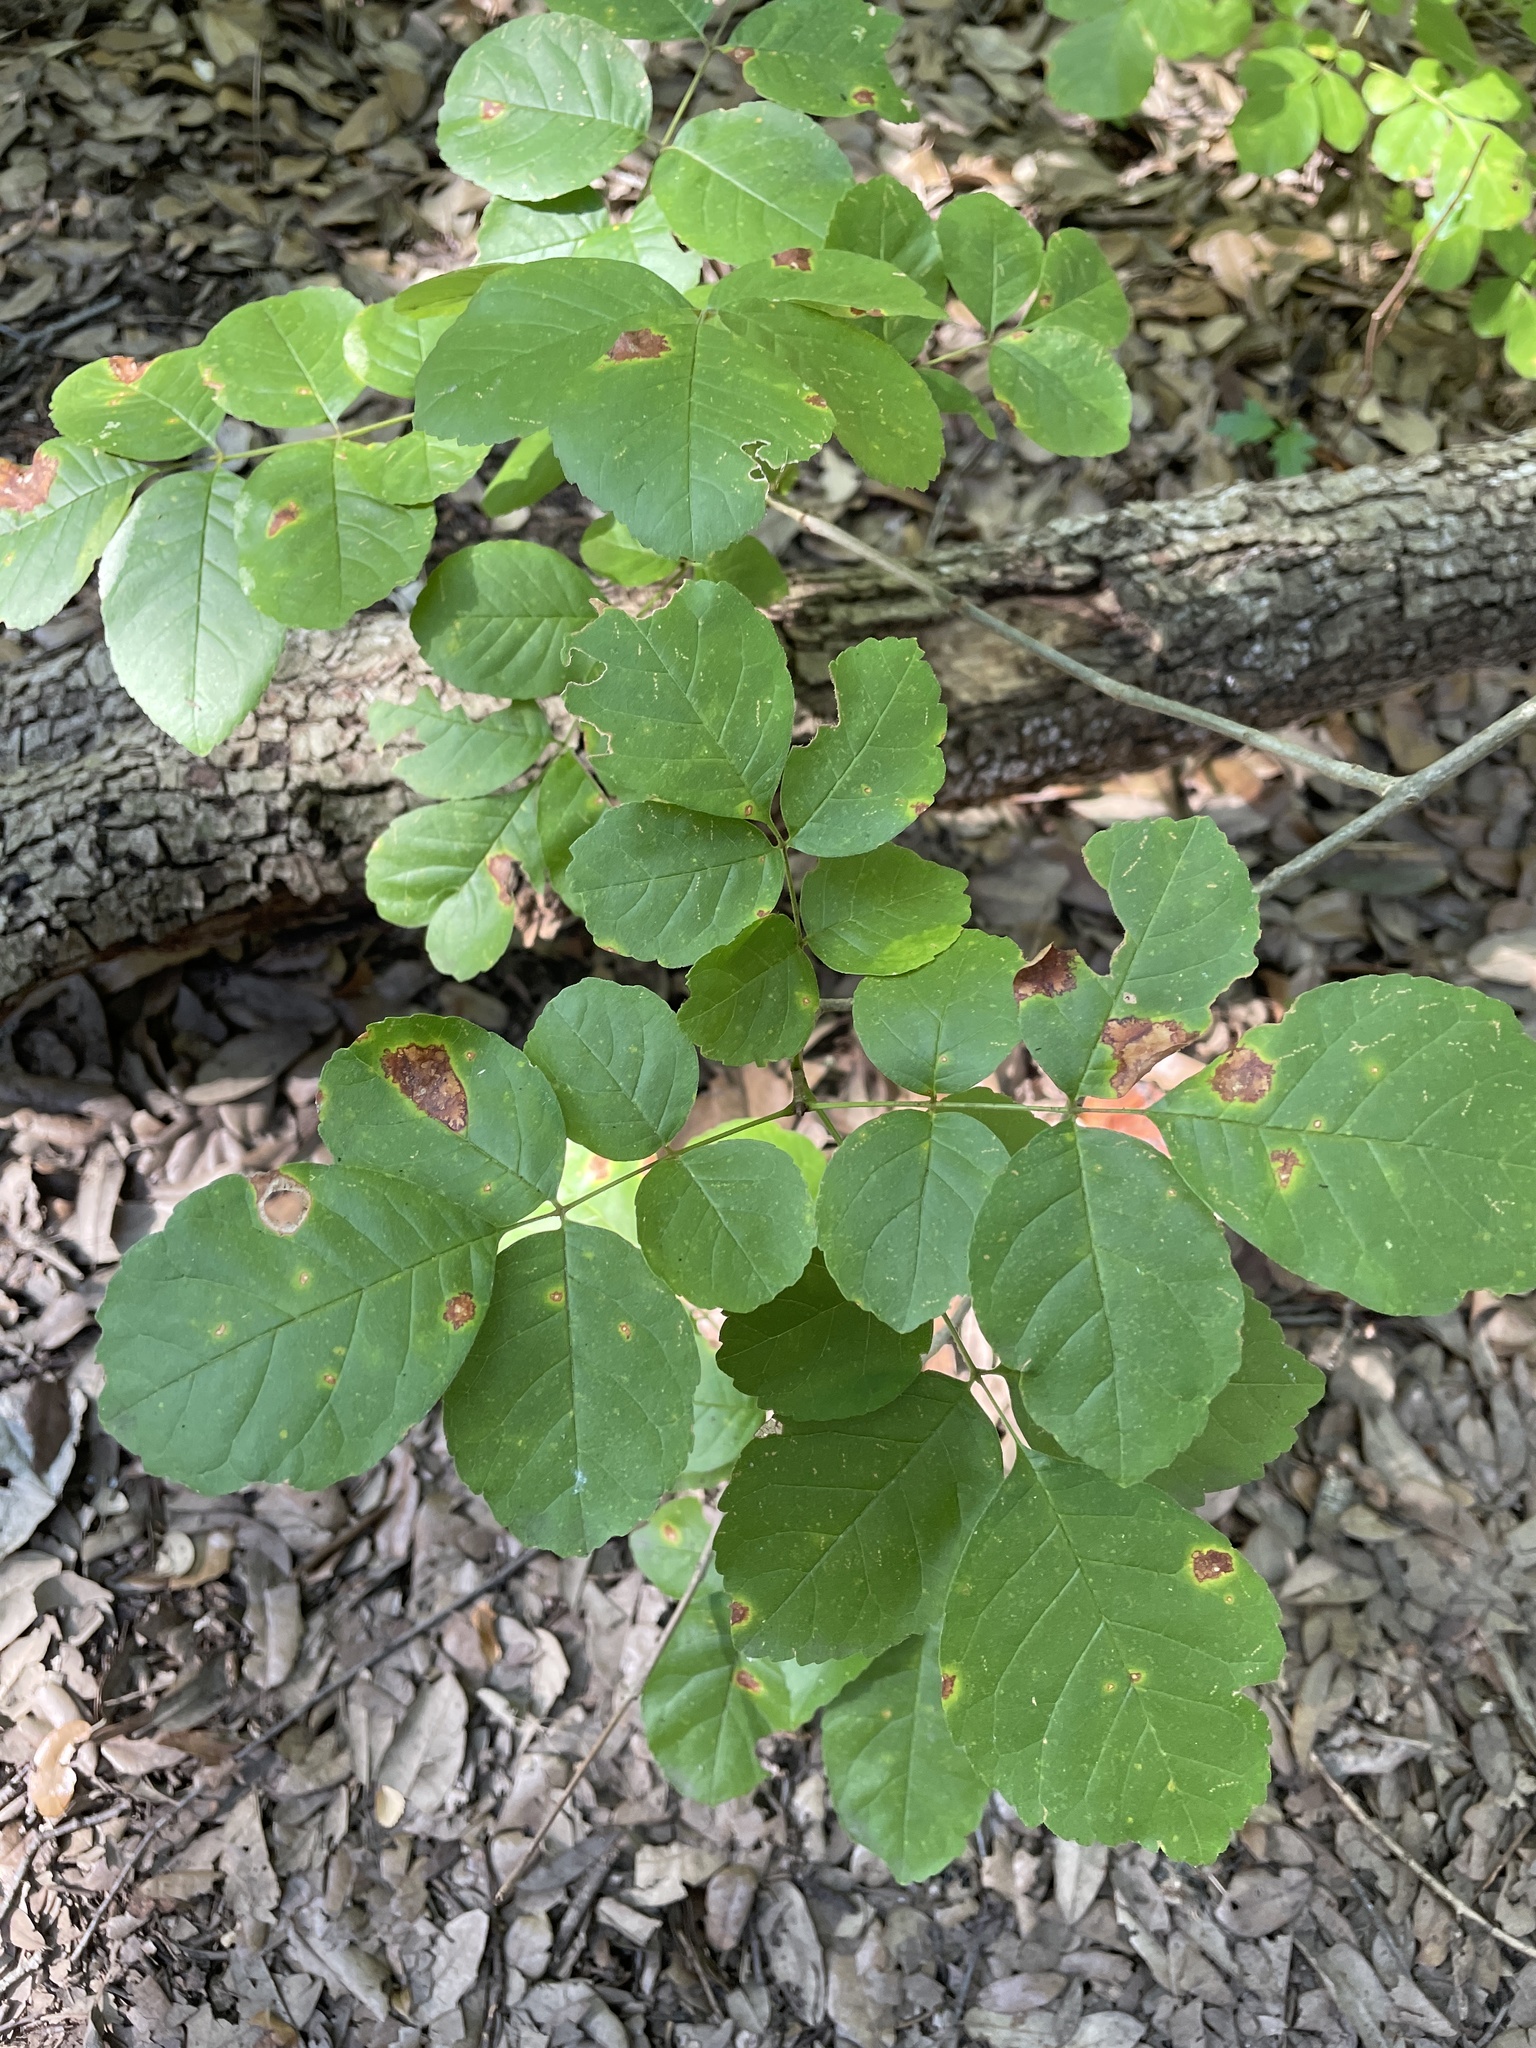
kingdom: Plantae
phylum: Tracheophyta
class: Magnoliopsida
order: Lamiales
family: Oleaceae
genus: Fraxinus
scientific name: Fraxinus albicans
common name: Texas ash
